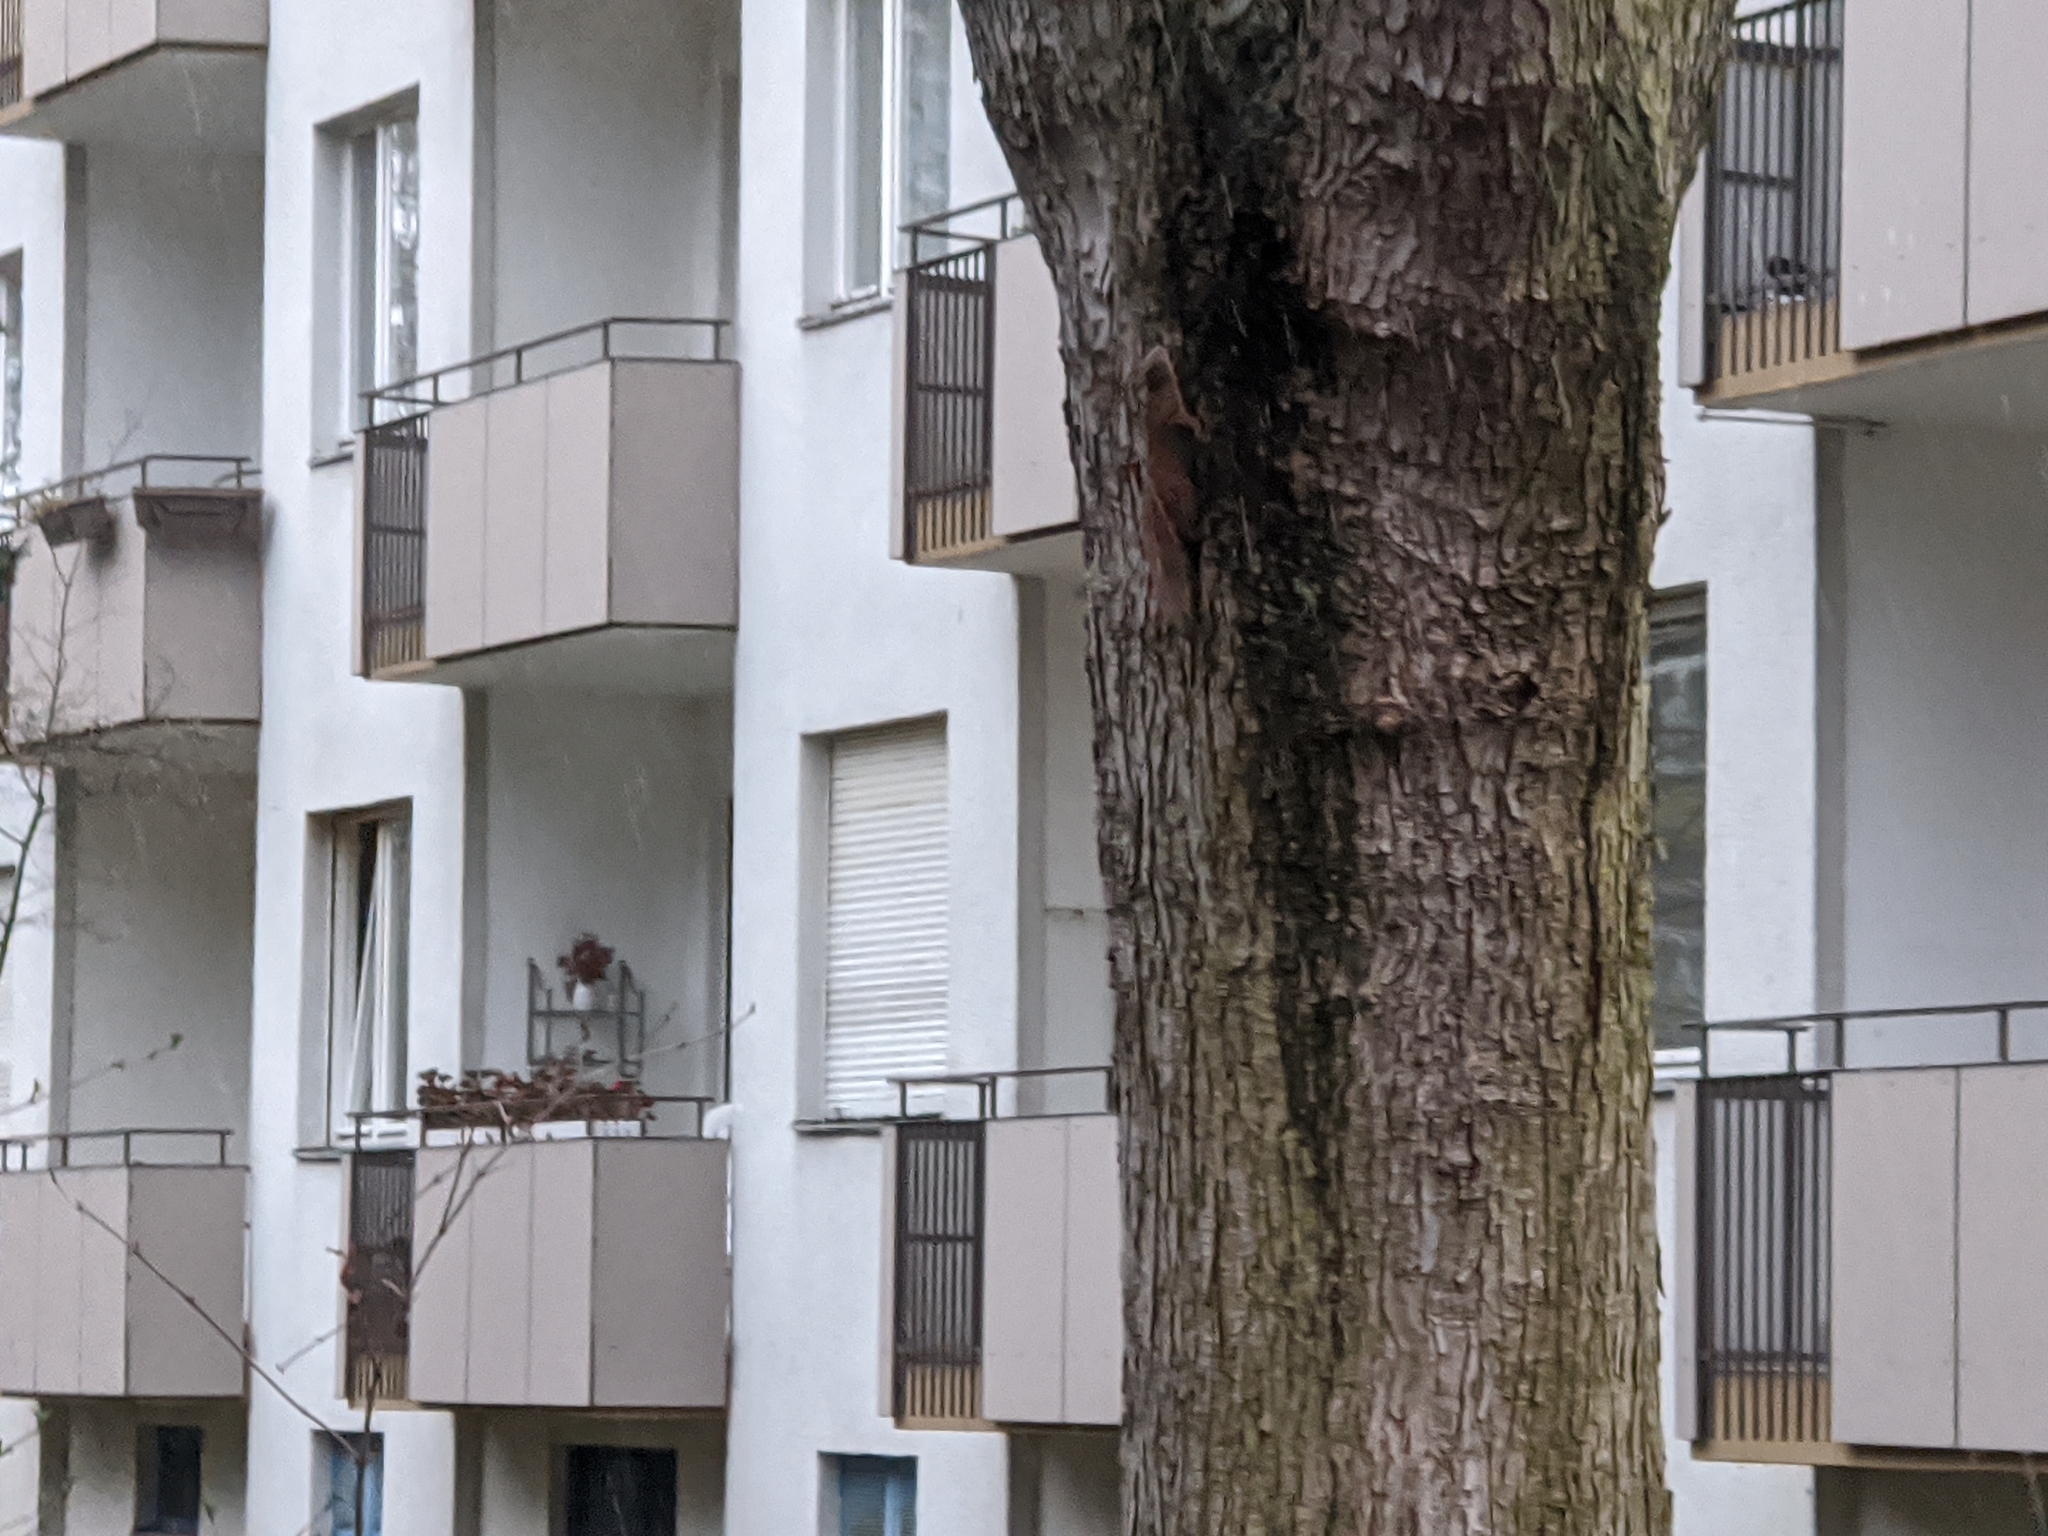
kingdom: Animalia
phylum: Chordata
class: Mammalia
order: Rodentia
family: Sciuridae
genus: Sciurus
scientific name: Sciurus vulgaris
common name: Eurasian red squirrel
